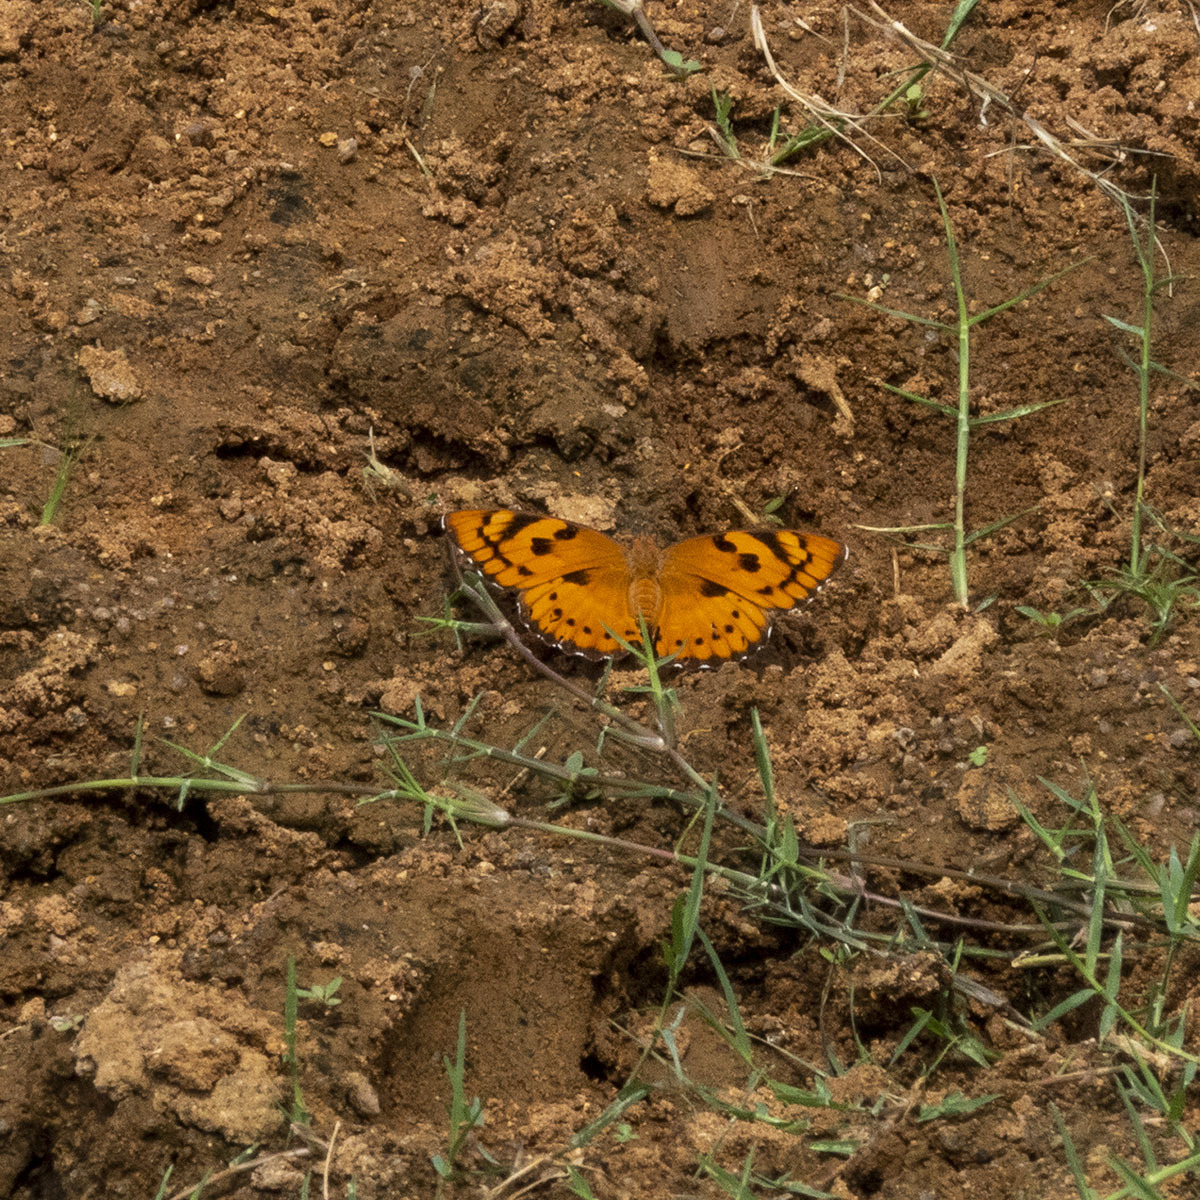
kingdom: Animalia
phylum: Arthropoda
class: Insecta
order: Lepidoptera
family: Nymphalidae
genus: Euthalia
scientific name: Euthalia nais
